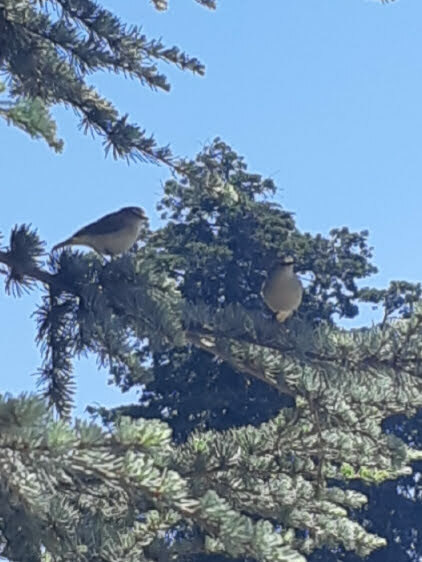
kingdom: Animalia
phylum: Chordata
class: Aves
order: Passeriformes
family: Acanthizidae
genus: Acanthiza
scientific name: Acanthiza chrysorrhoa
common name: Yellow-rumped thornbill
